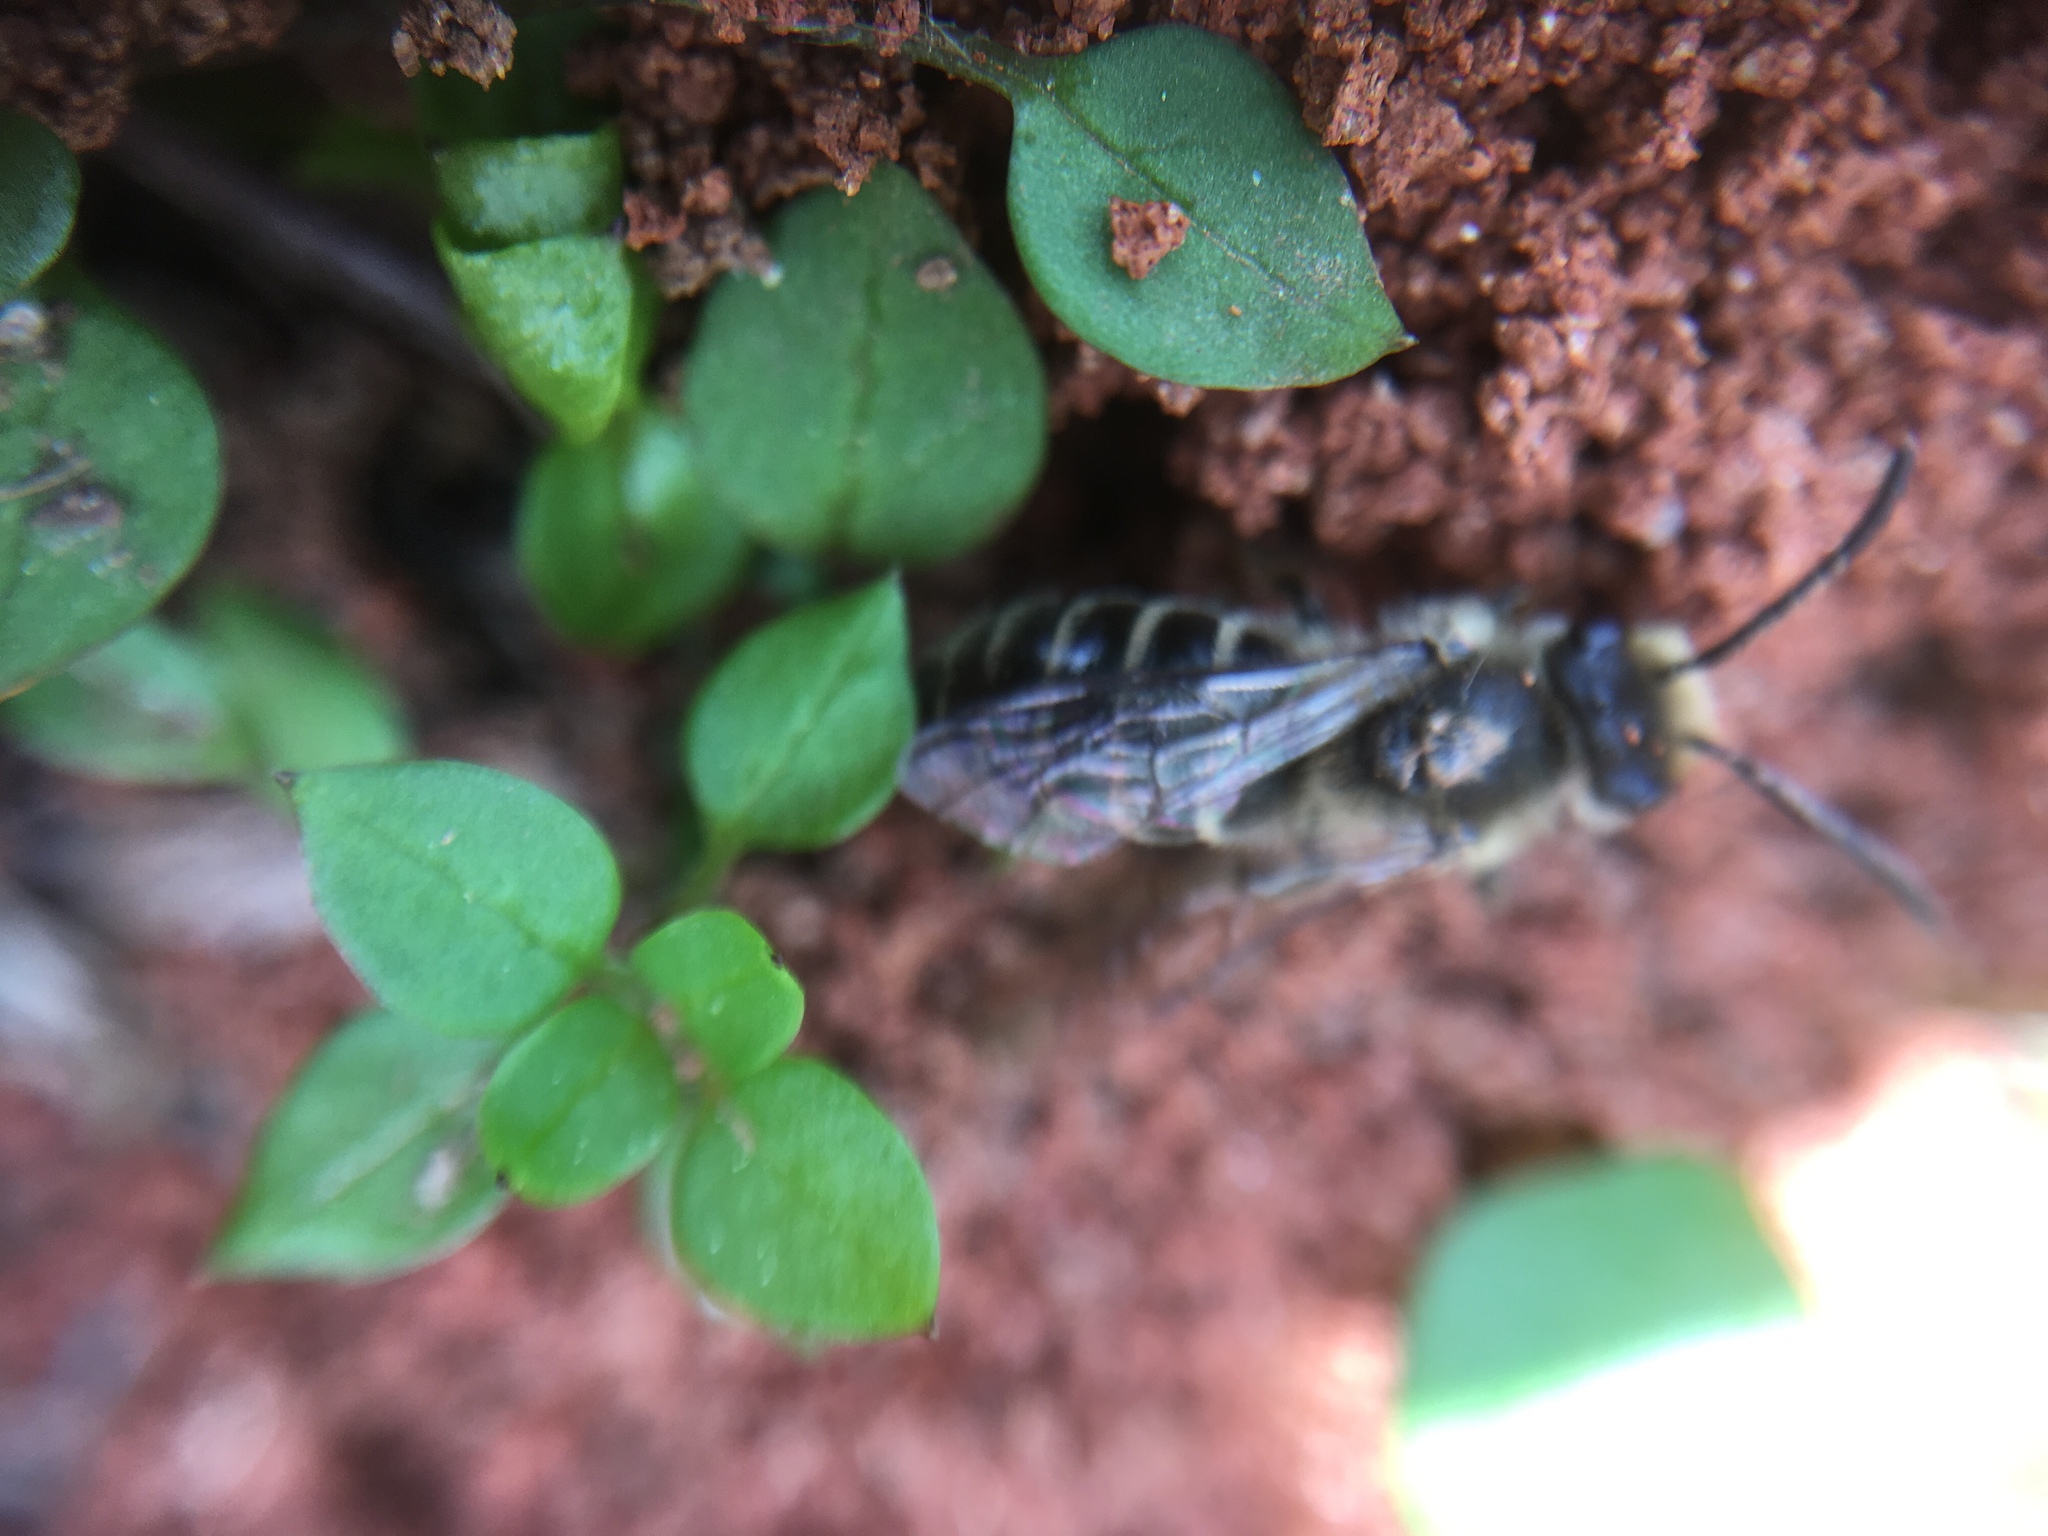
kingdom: Animalia
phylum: Arthropoda
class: Insecta
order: Hymenoptera
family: Colletidae
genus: Colletes
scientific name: Colletes inaequalis
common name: Unequal cellophane bee
